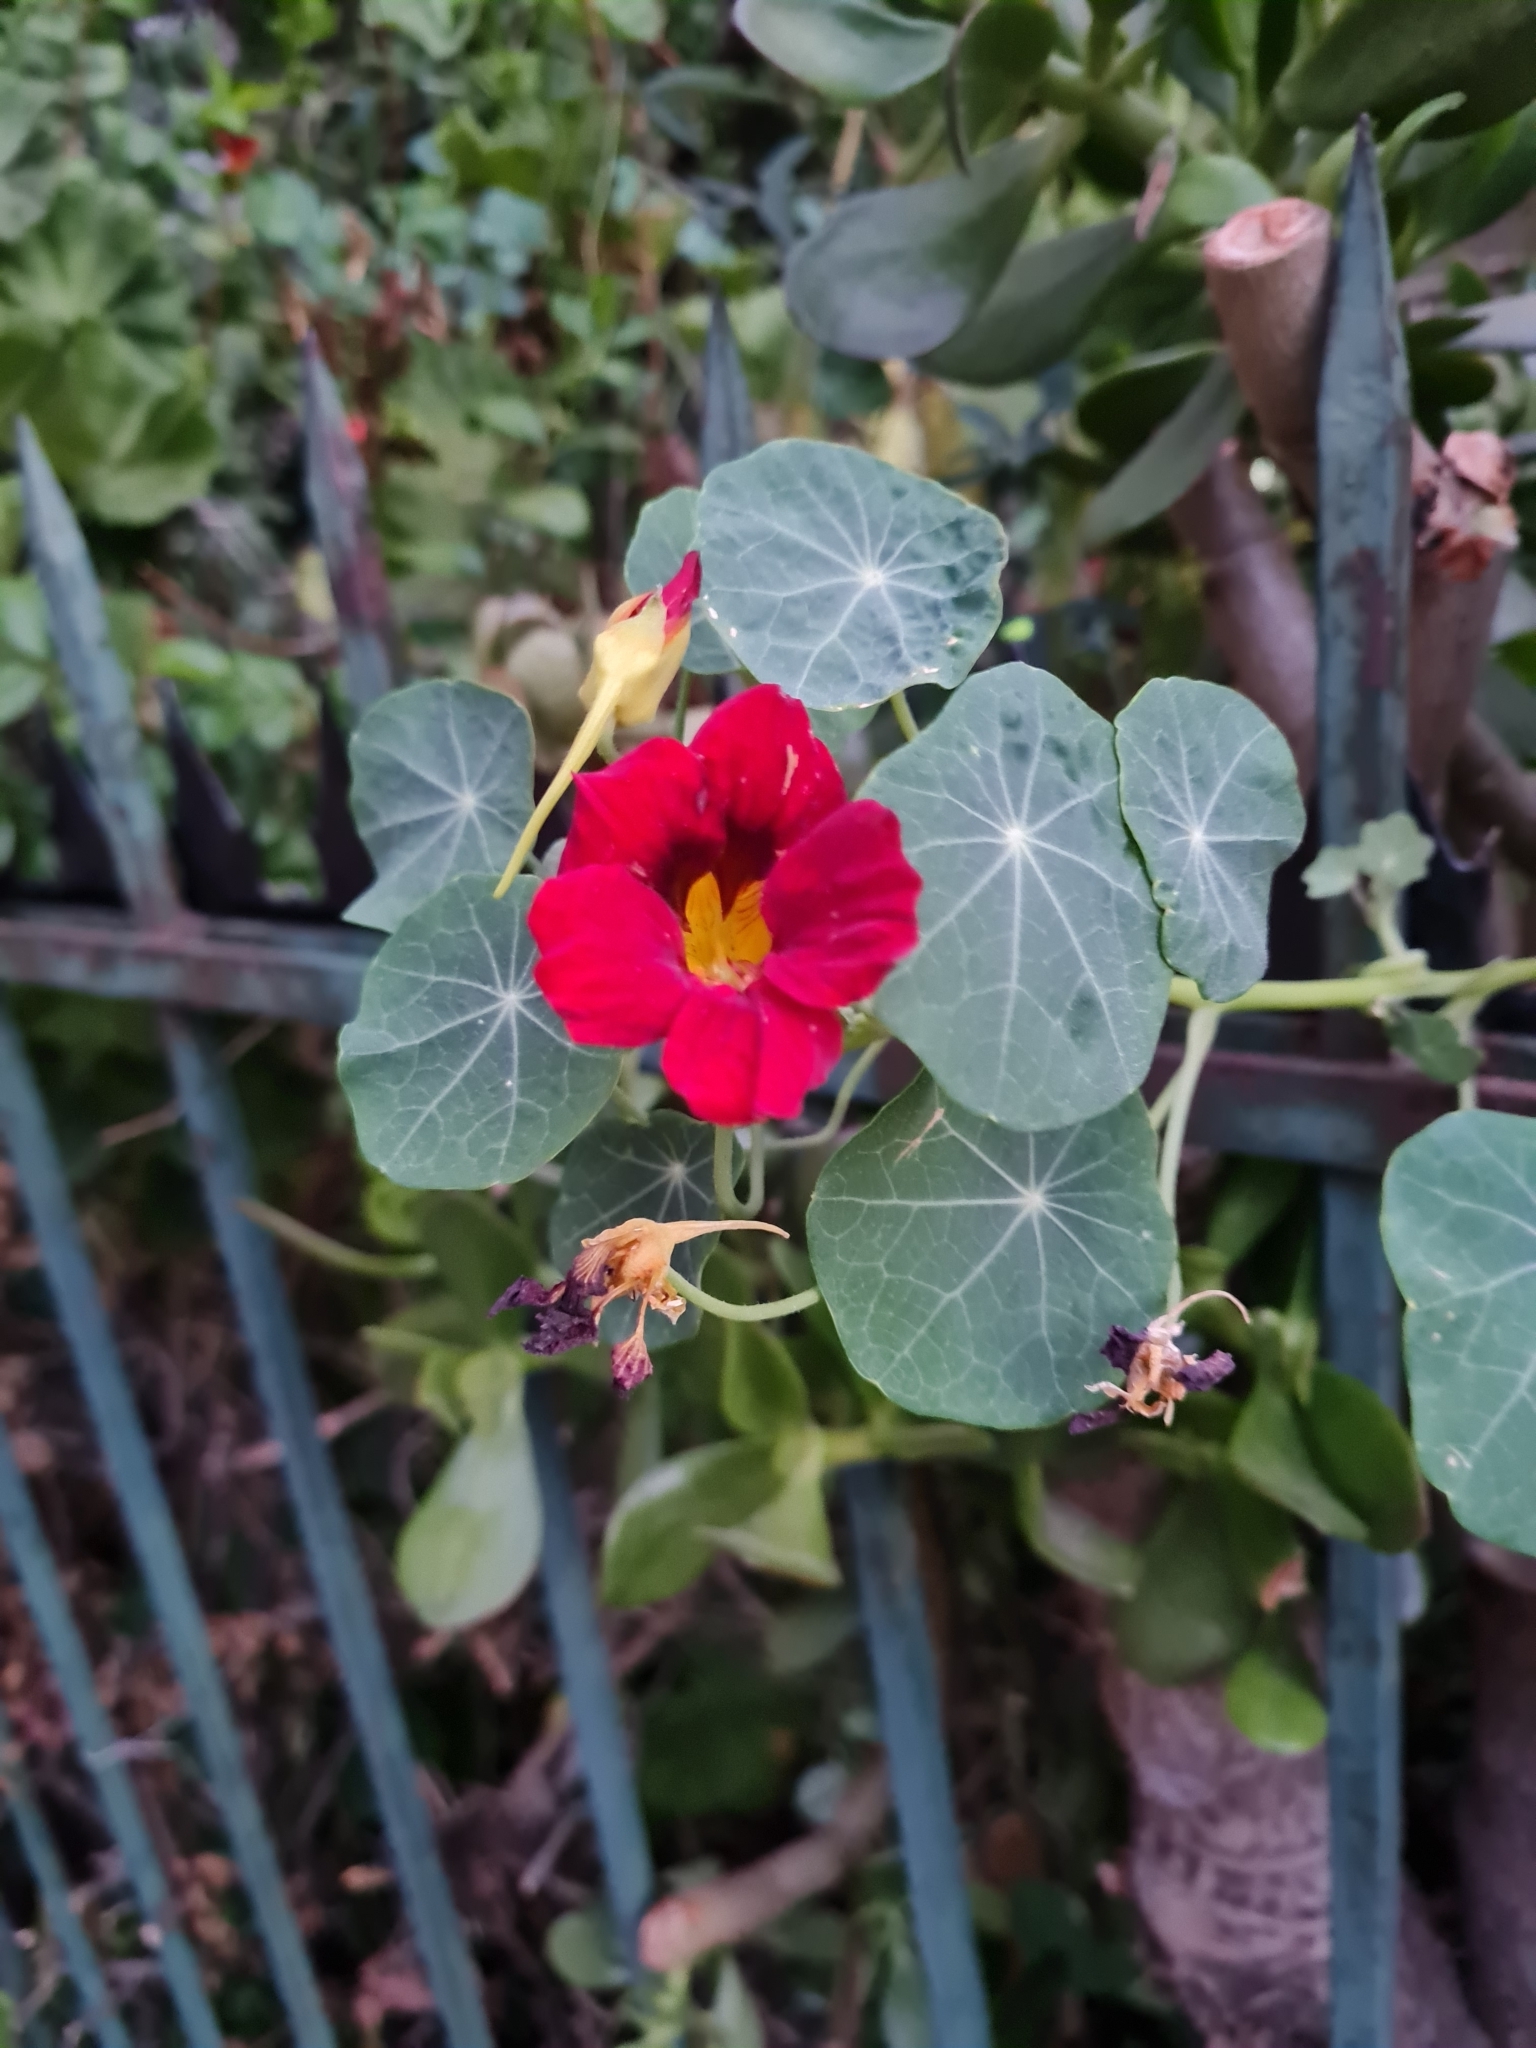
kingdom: Plantae
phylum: Tracheophyta
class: Magnoliopsida
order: Brassicales
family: Tropaeolaceae
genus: Tropaeolum
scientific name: Tropaeolum majus
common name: Nasturtium
